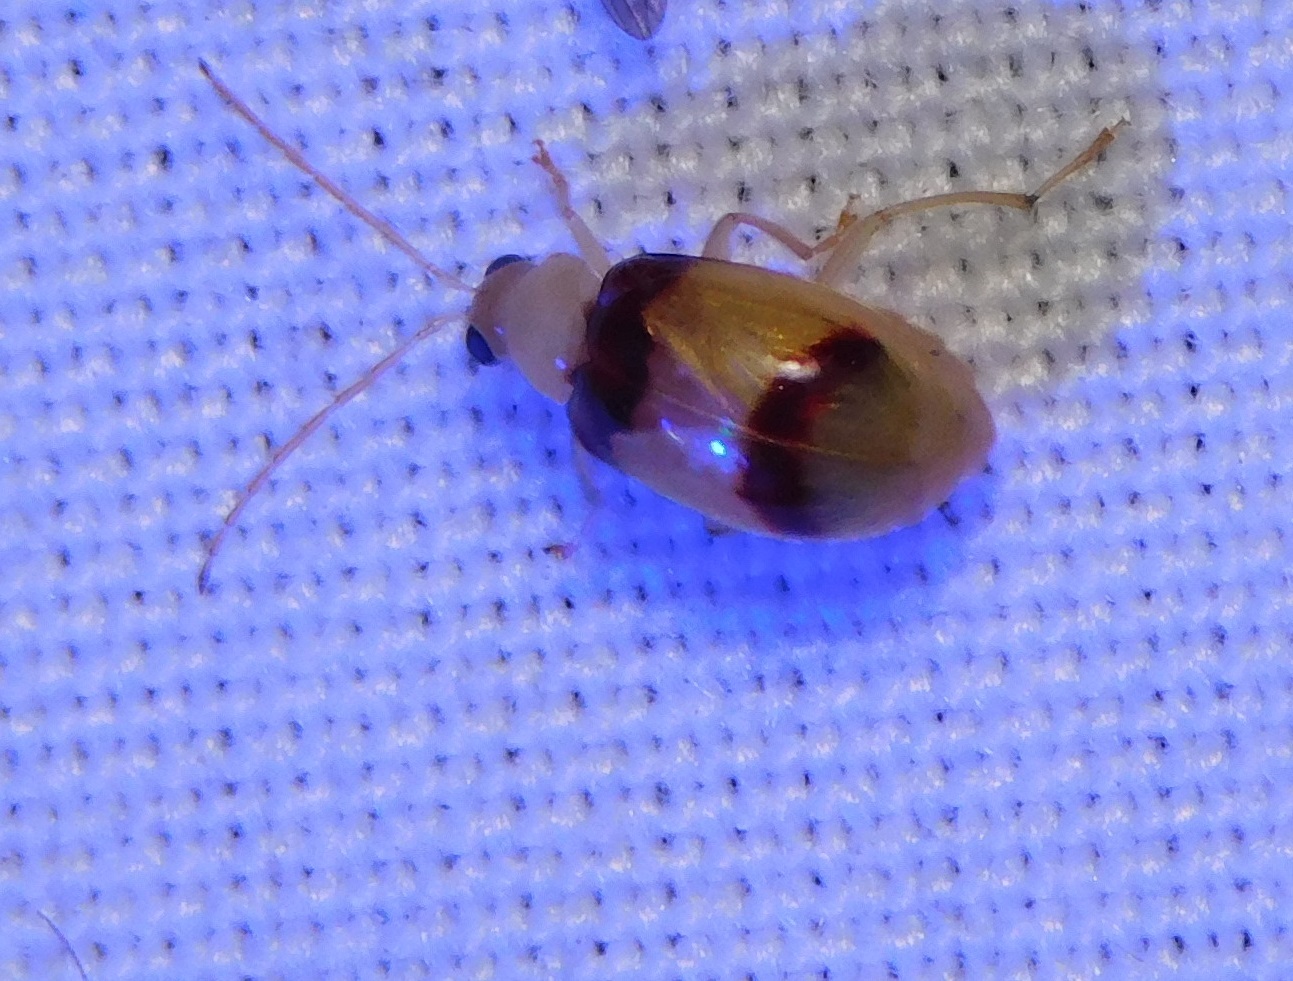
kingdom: Animalia
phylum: Arthropoda
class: Insecta
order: Coleoptera
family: Chrysomelidae
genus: Monolepta
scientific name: Monolepta
